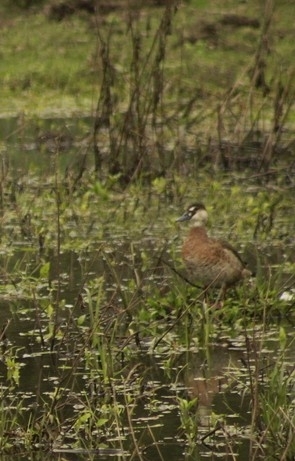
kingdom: Animalia
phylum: Chordata
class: Aves
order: Anseriformes
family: Anatidae
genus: Amazonetta
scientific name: Amazonetta brasiliensis
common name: Brazilian teal
